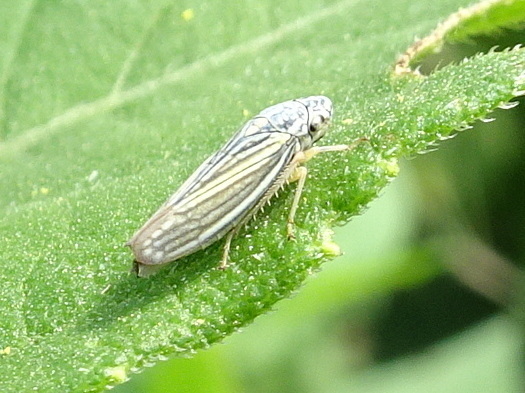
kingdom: Animalia
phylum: Arthropoda
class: Insecta
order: Hemiptera
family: Cicadellidae
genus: Neokolla
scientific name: Neokolla hieroglyphica
